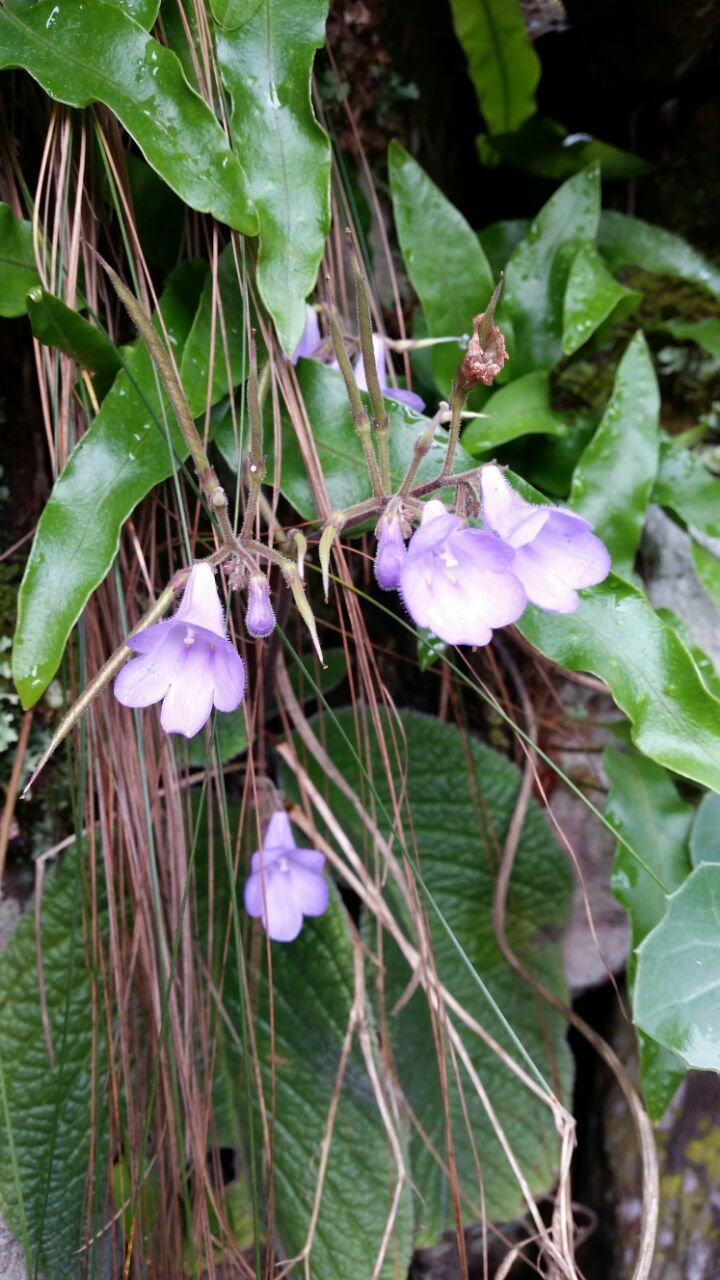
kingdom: Plantae
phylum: Tracheophyta
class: Magnoliopsida
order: Lamiales
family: Gesneriaceae
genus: Streptocarpus
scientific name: Streptocarpus caeruleus
